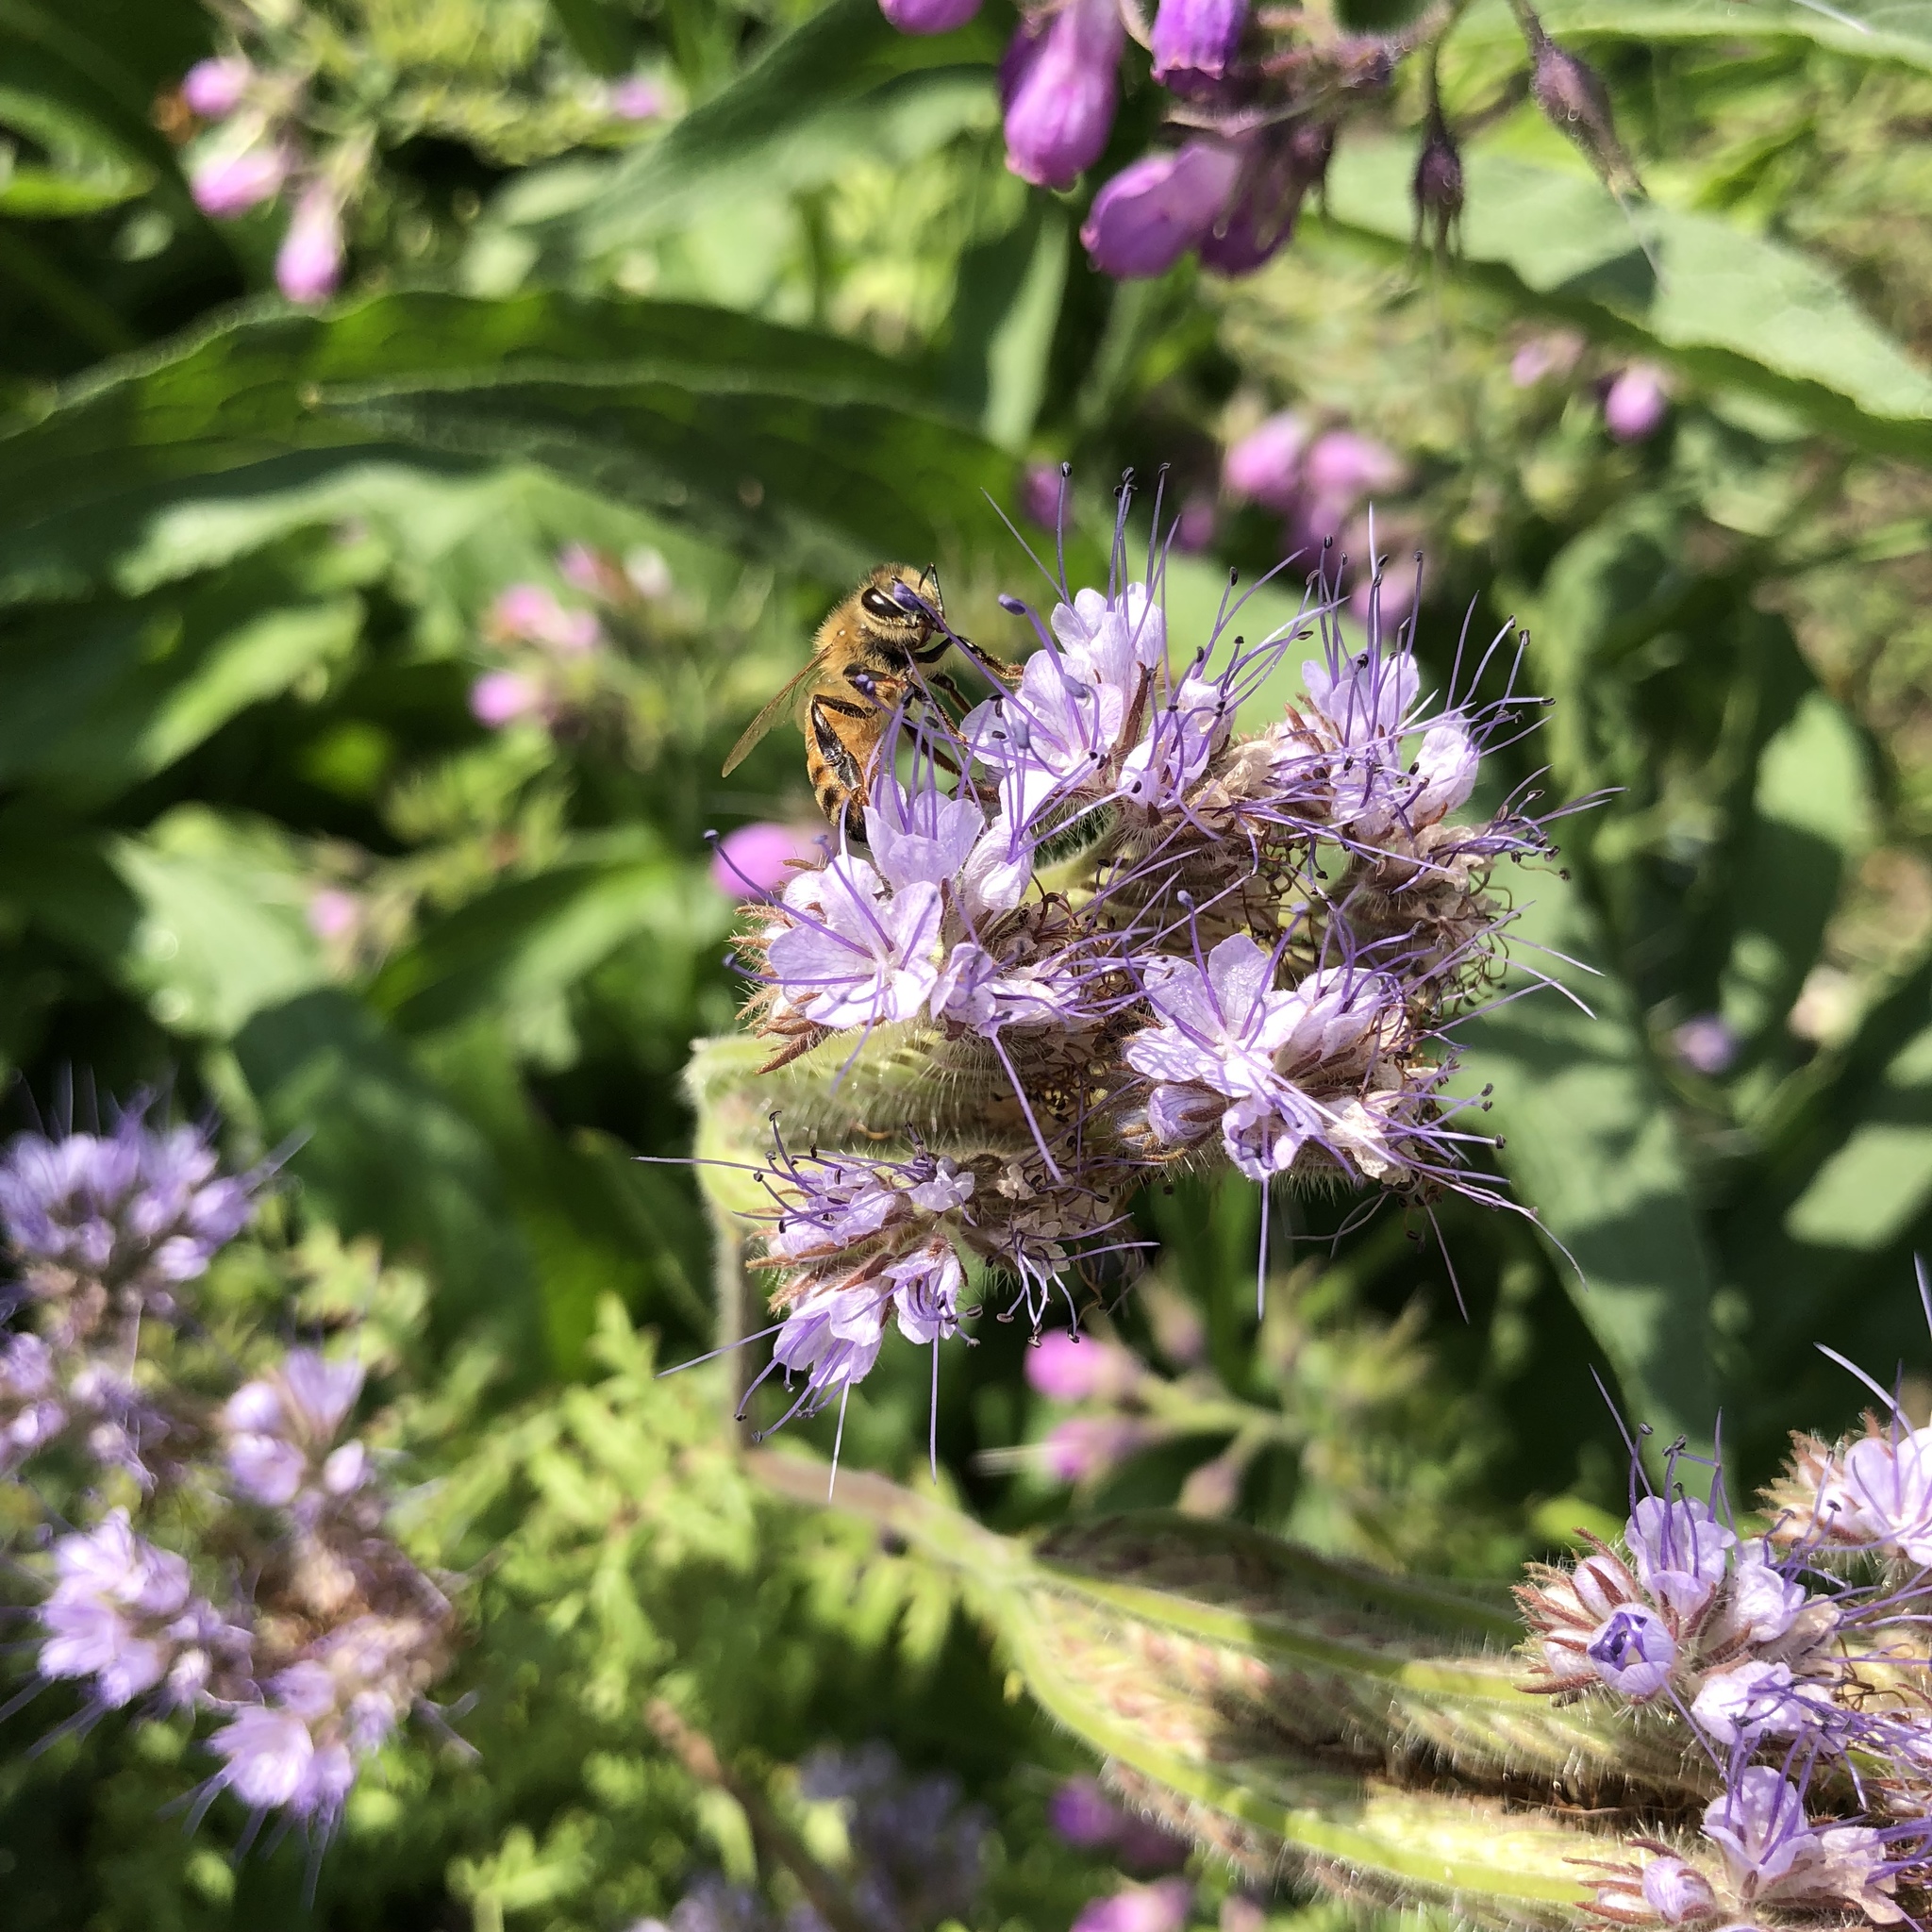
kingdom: Animalia
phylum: Arthropoda
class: Insecta
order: Hymenoptera
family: Apidae
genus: Apis
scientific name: Apis mellifera
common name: Honey bee
